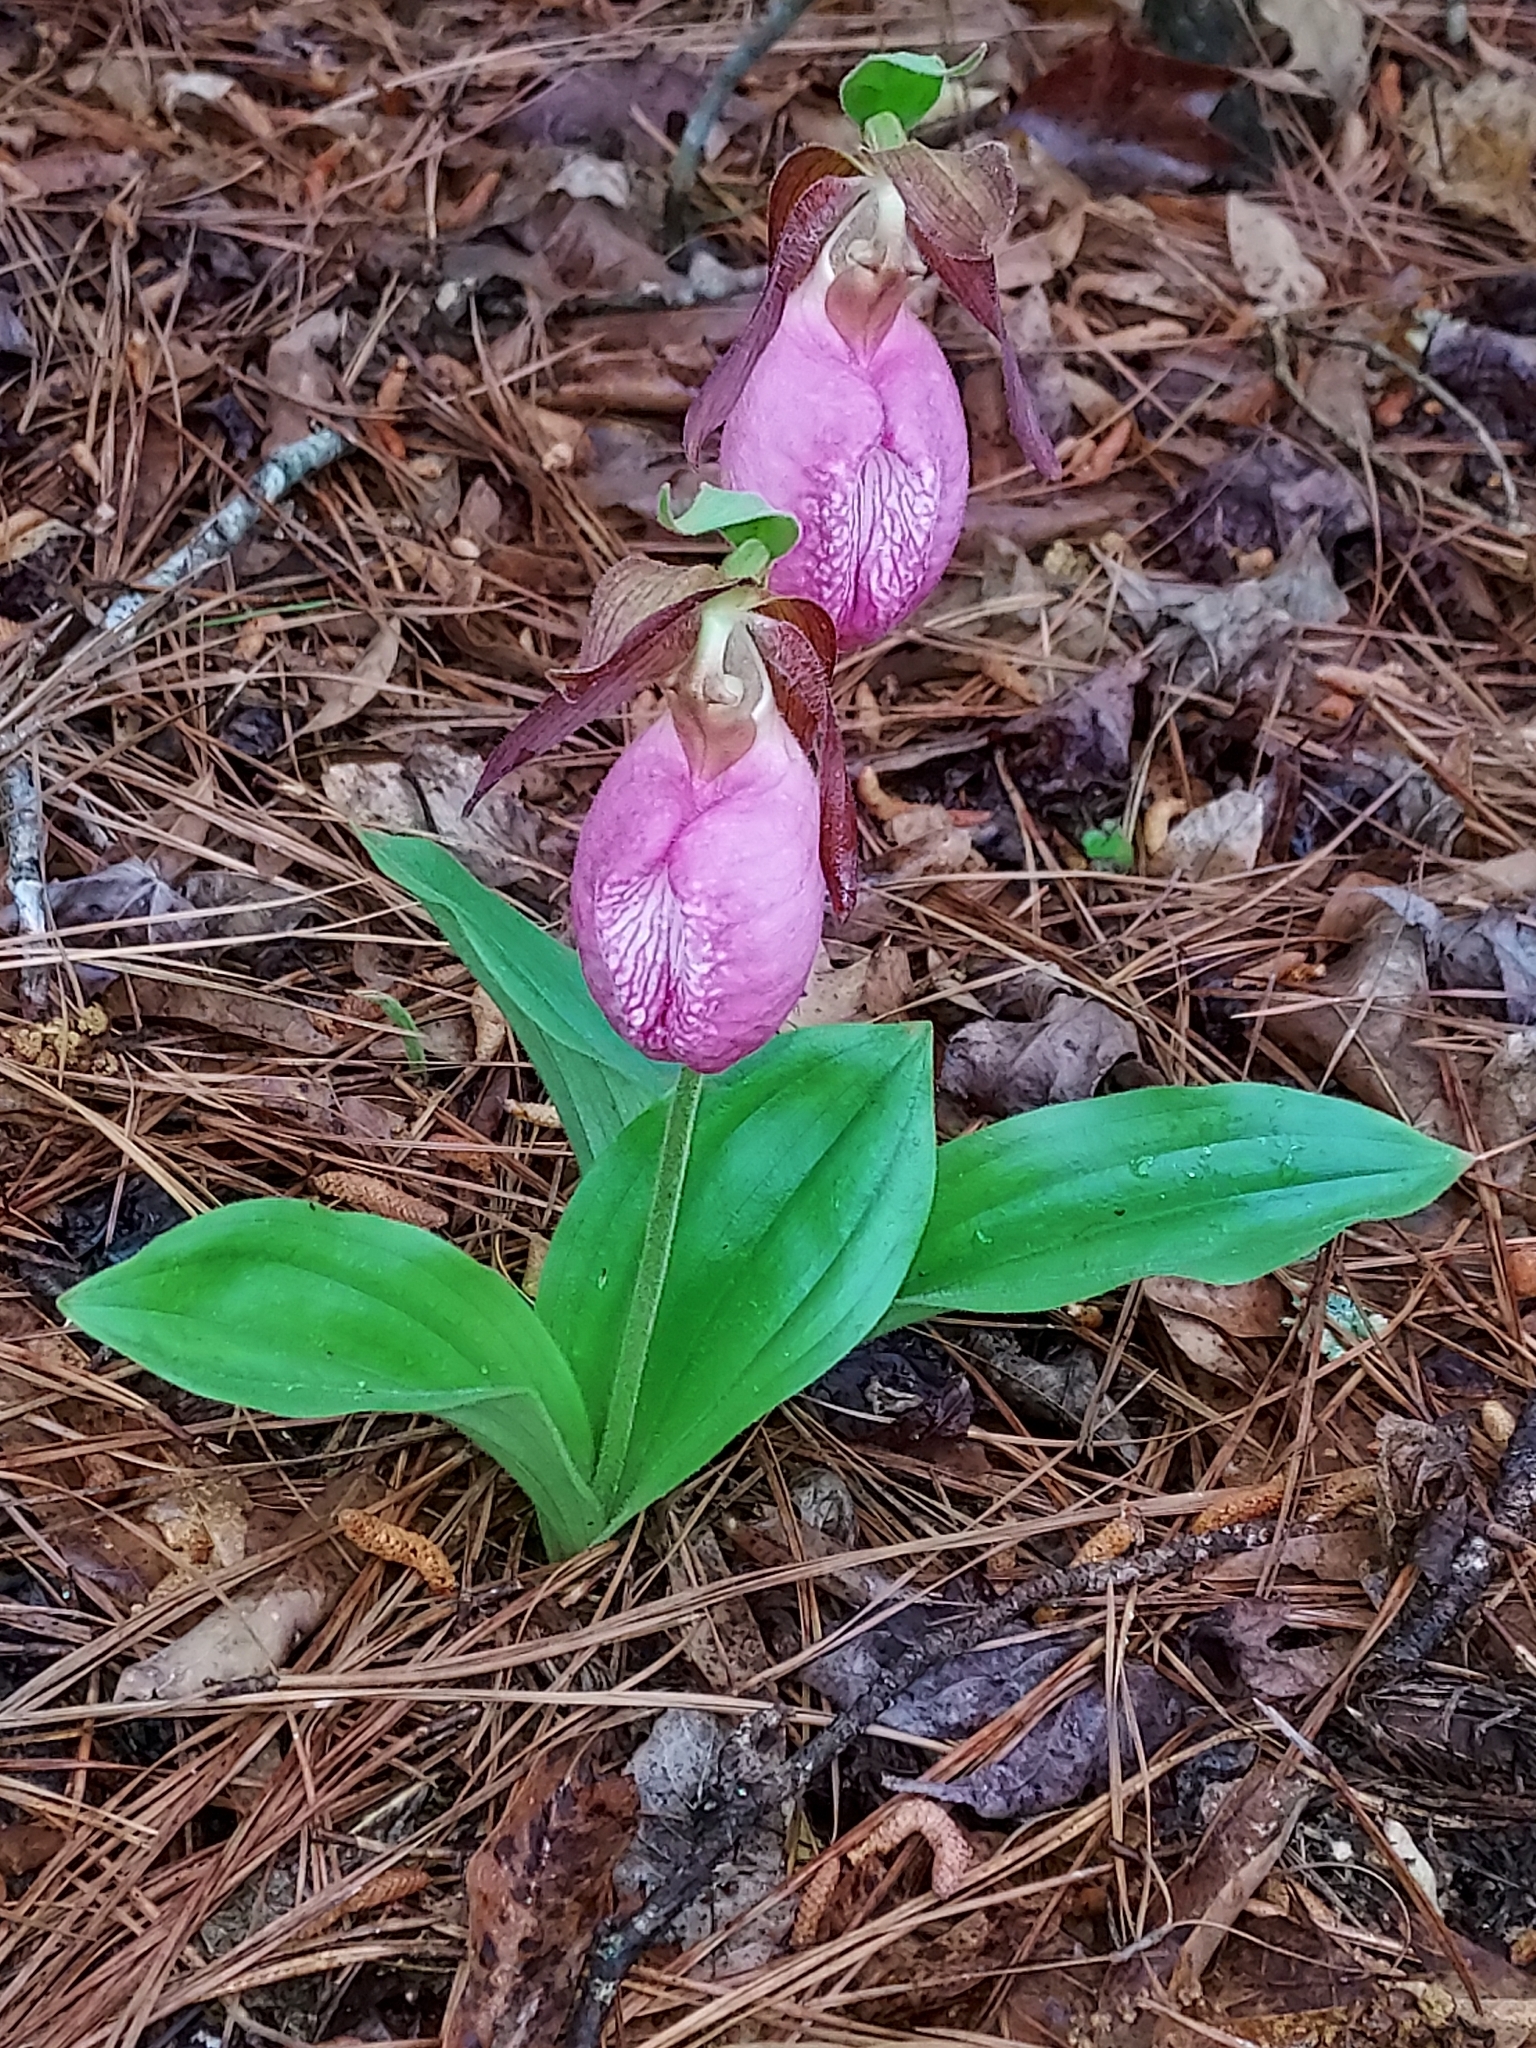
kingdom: Plantae
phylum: Tracheophyta
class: Liliopsida
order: Asparagales
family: Orchidaceae
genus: Cypripedium
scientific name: Cypripedium acaule
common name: Pink lady's-slipper
